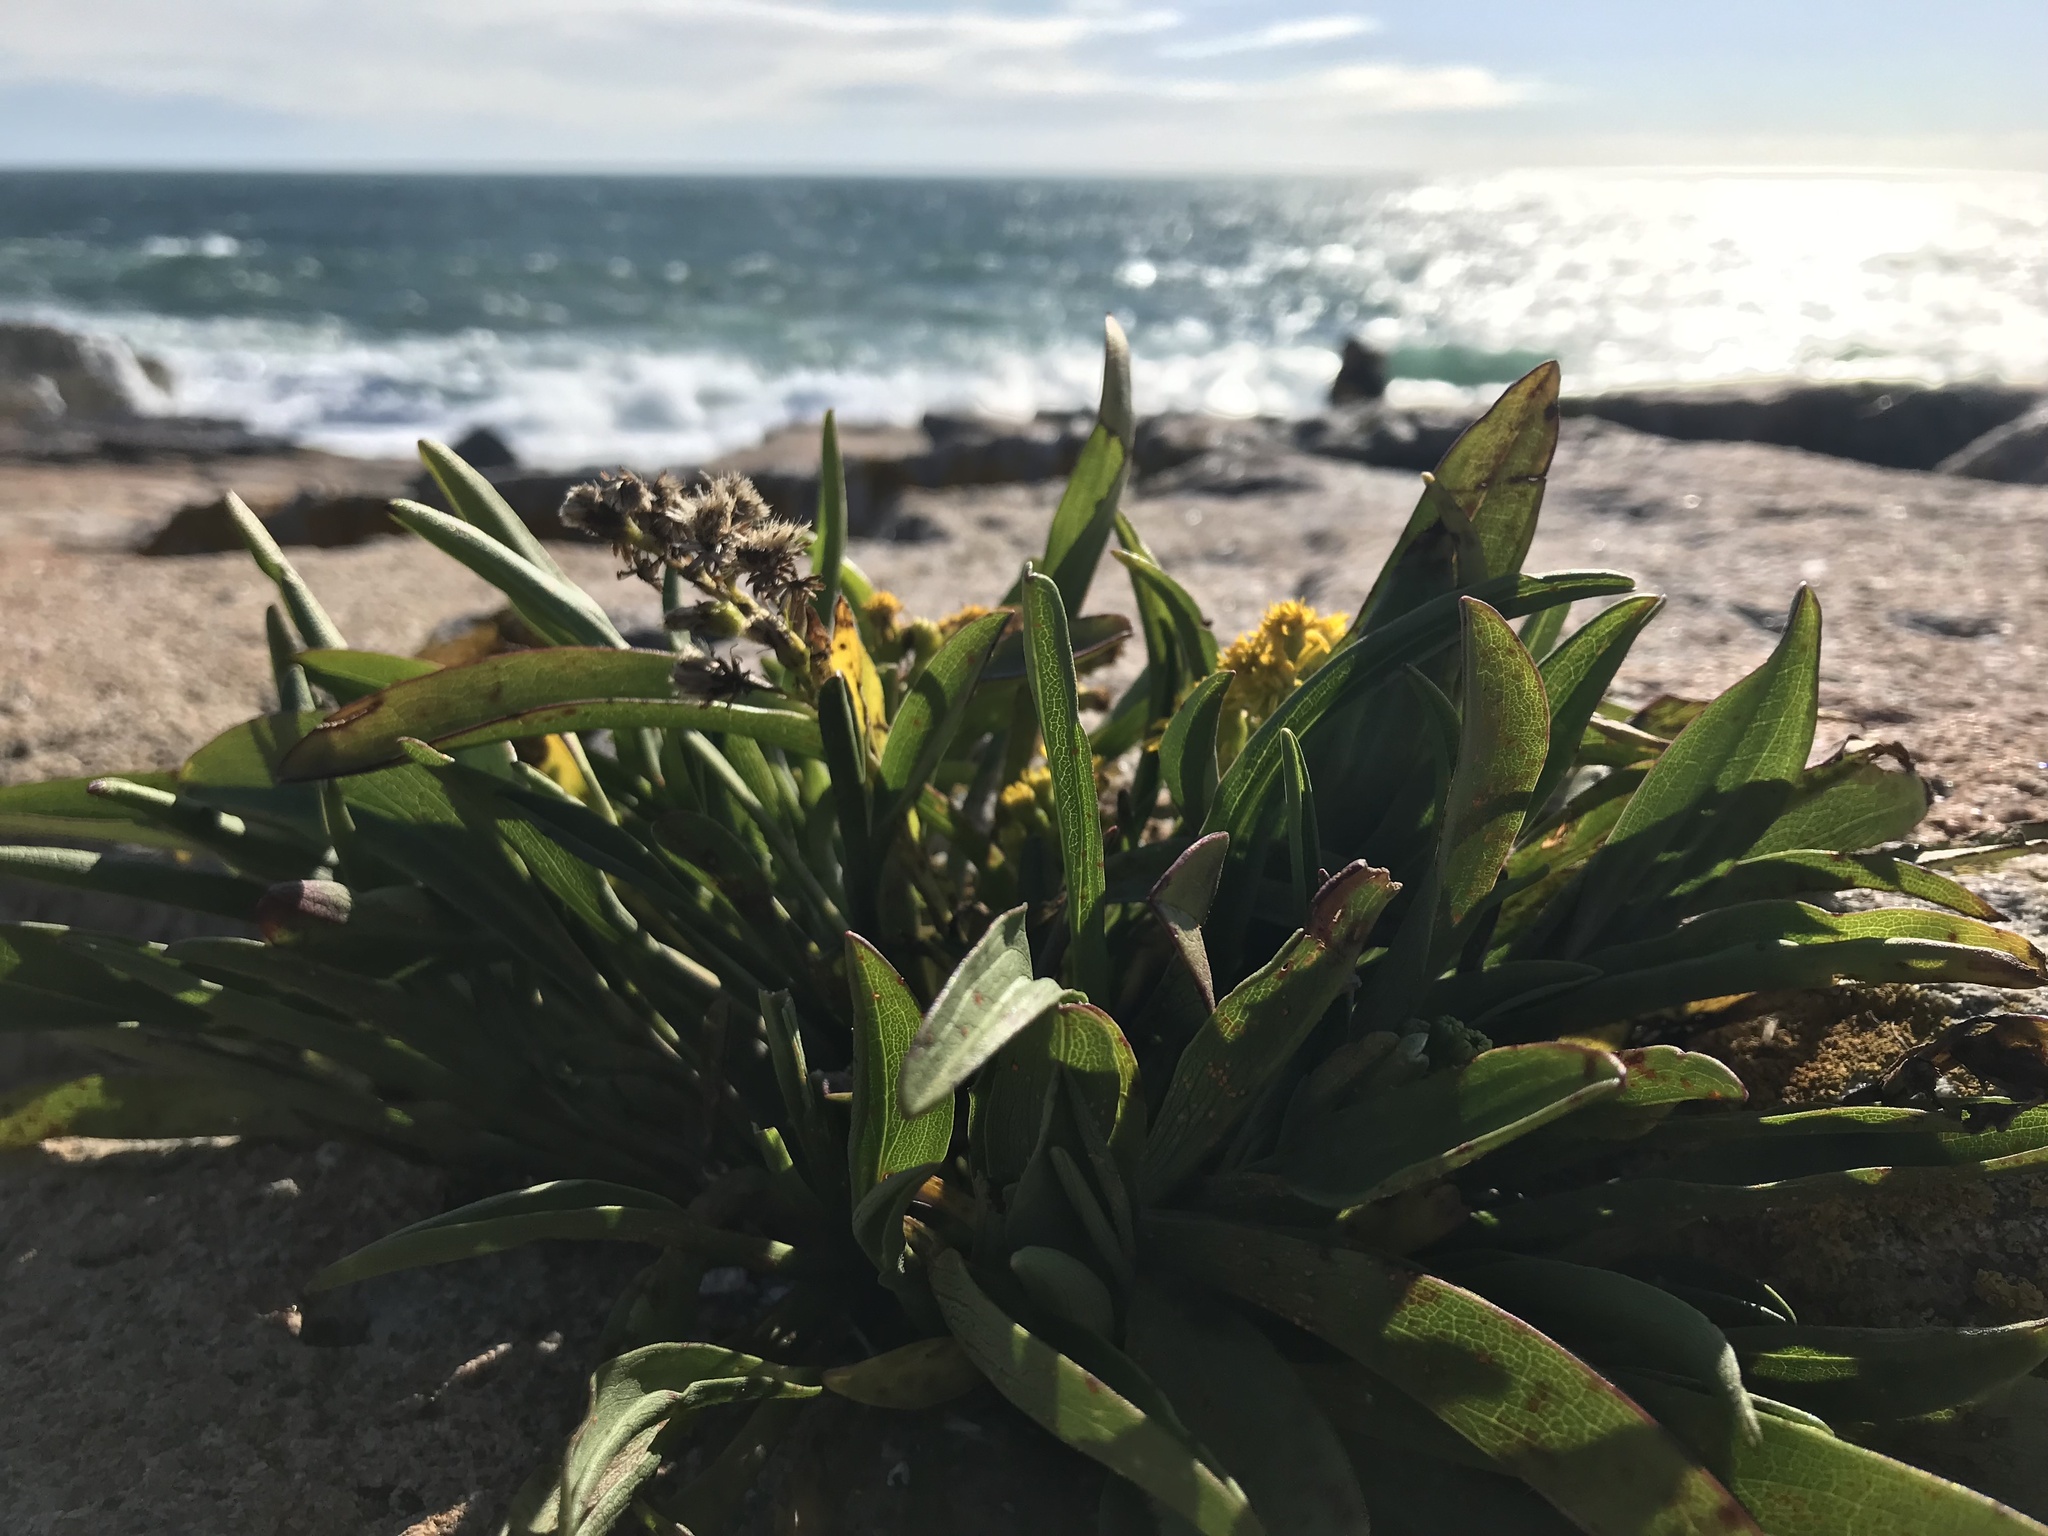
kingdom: Plantae
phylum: Tracheophyta
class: Magnoliopsida
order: Asterales
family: Asteraceae
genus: Solidago
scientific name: Solidago sempervirens
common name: Salt-marsh goldenrod
